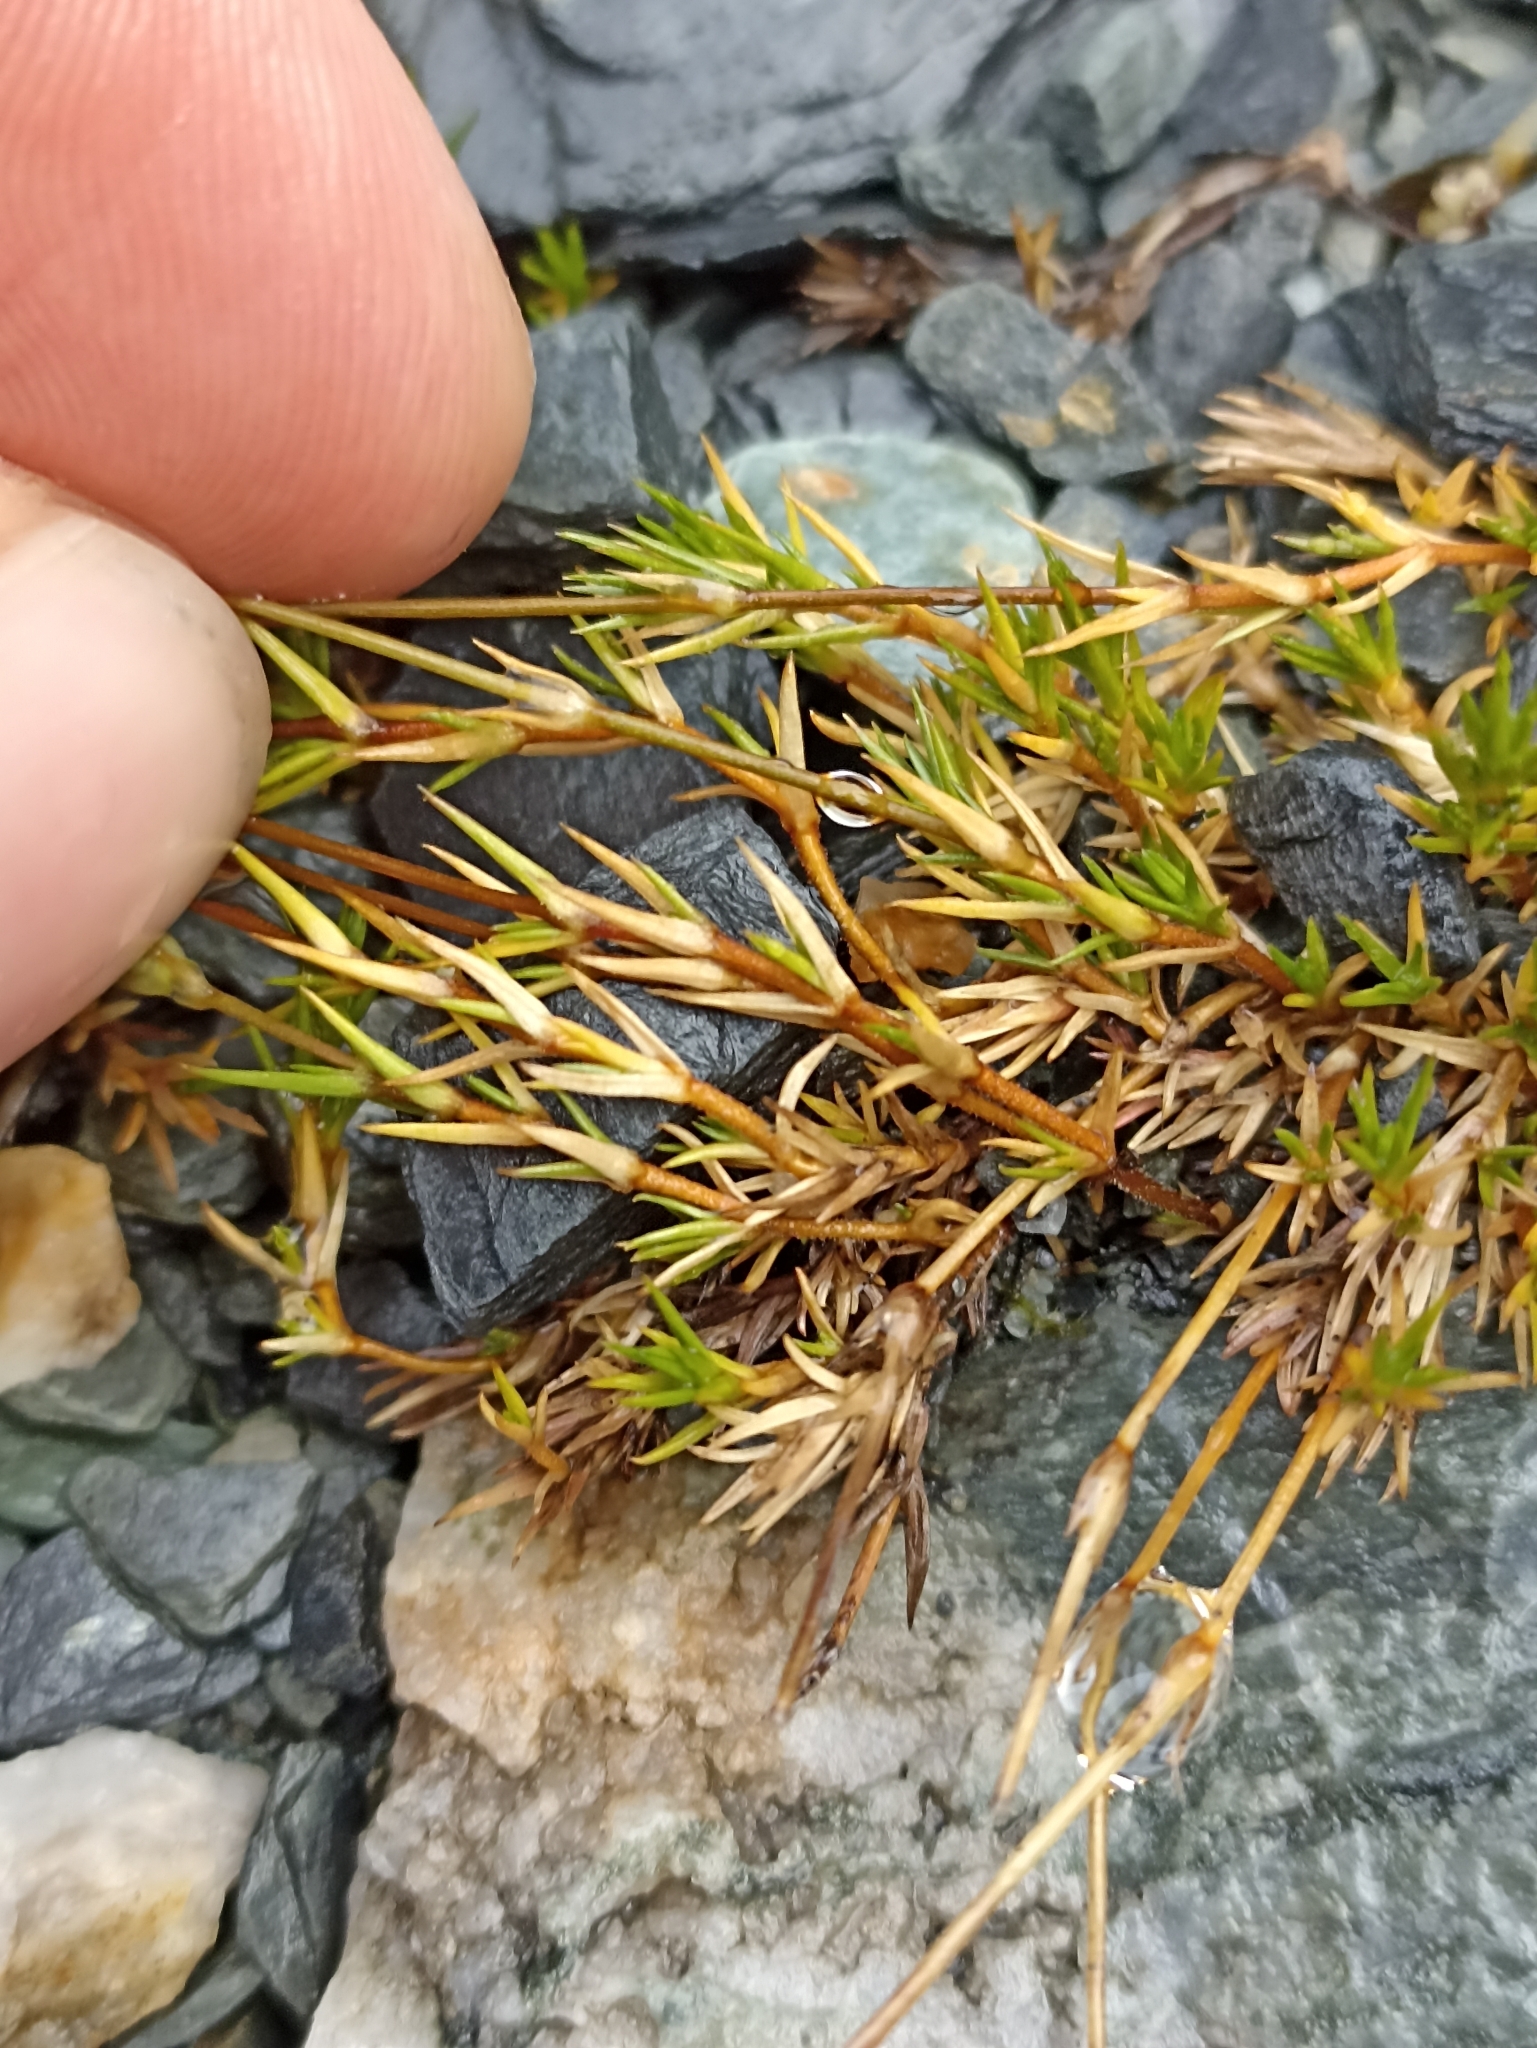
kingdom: Plantae
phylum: Tracheophyta
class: Magnoliopsida
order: Caryophyllales
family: Caryophyllaceae
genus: Stellaria
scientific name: Stellaria gracilenta
